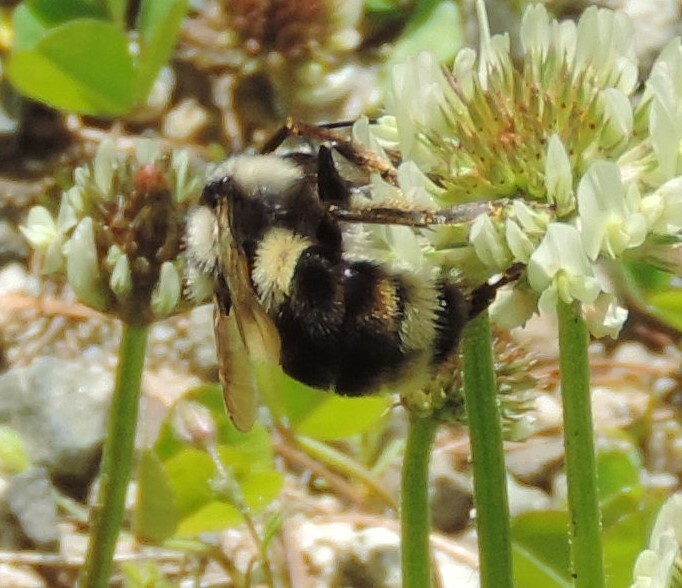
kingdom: Animalia
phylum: Arthropoda
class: Insecta
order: Hymenoptera
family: Apidae
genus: Bombus
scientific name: Bombus vancouverensis
